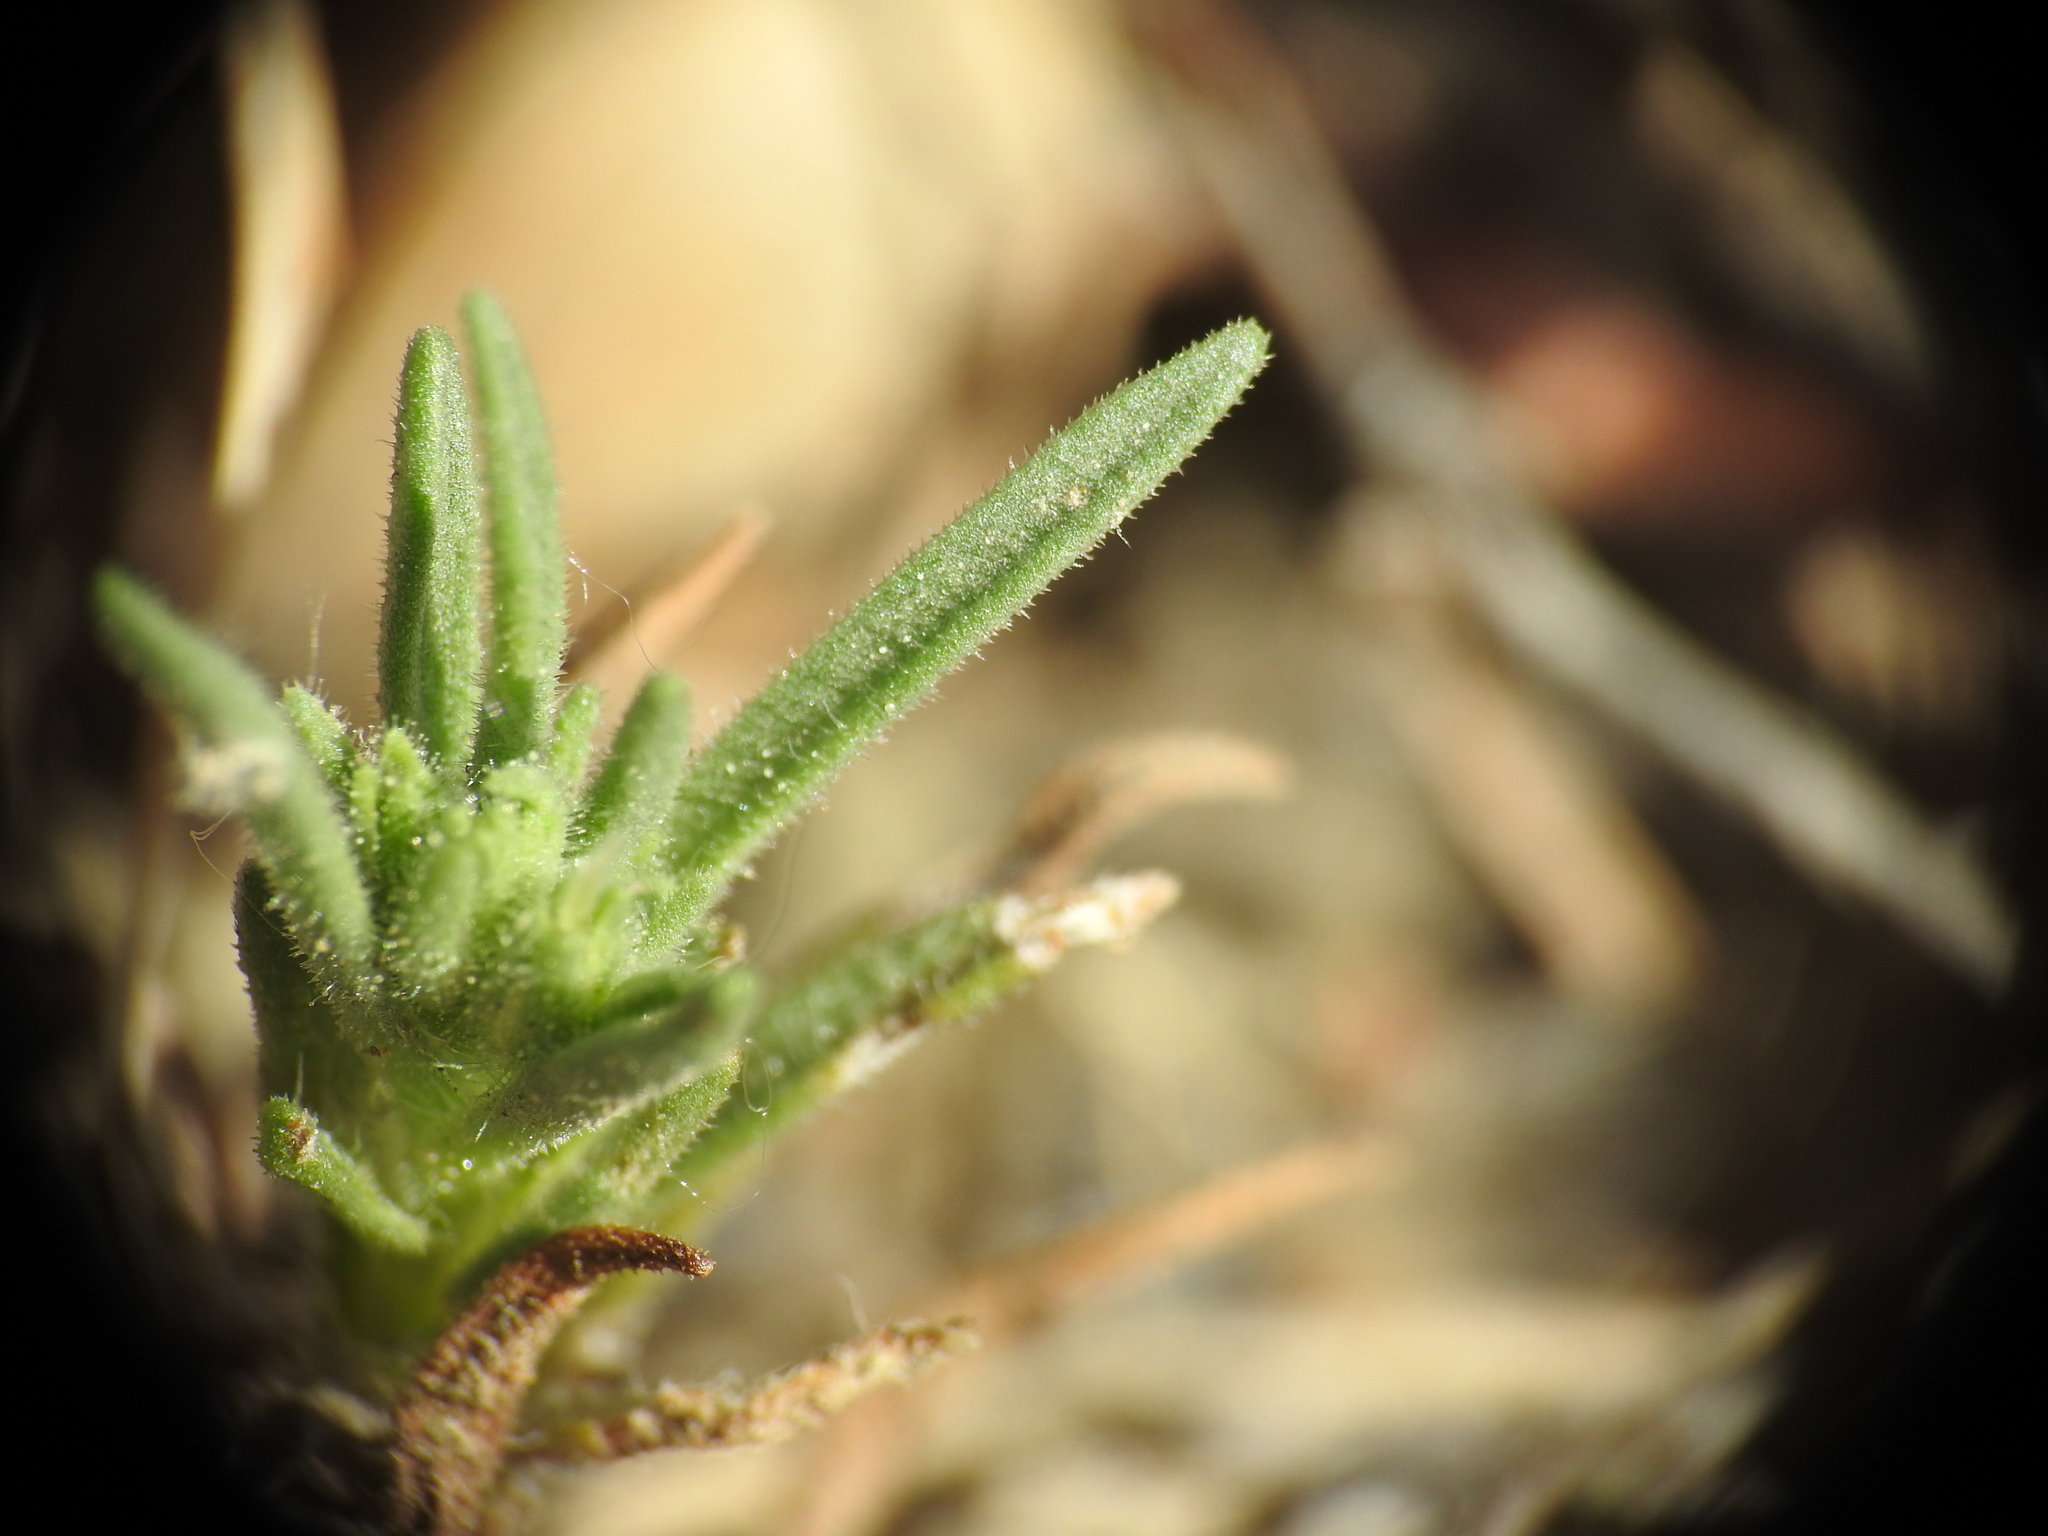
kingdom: Plantae
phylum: Tracheophyta
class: Magnoliopsida
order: Lamiales
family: Plantaginaceae
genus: Plantago
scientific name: Plantago afra
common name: Glandular plantain
